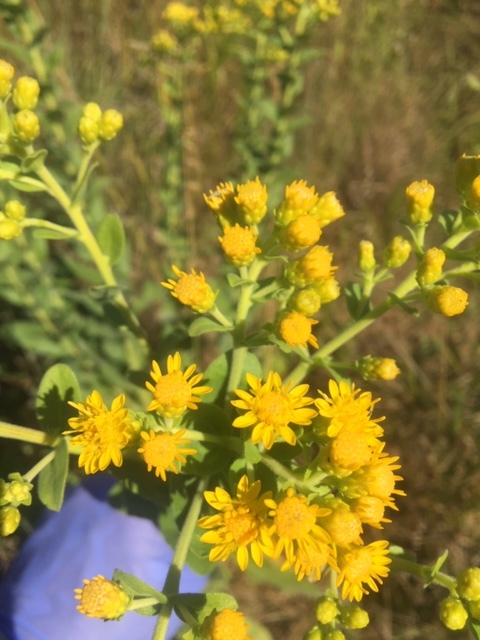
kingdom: Plantae
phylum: Tracheophyta
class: Magnoliopsida
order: Asterales
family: Asteraceae
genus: Solidago
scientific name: Solidago rigida
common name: Rigid goldenrod
